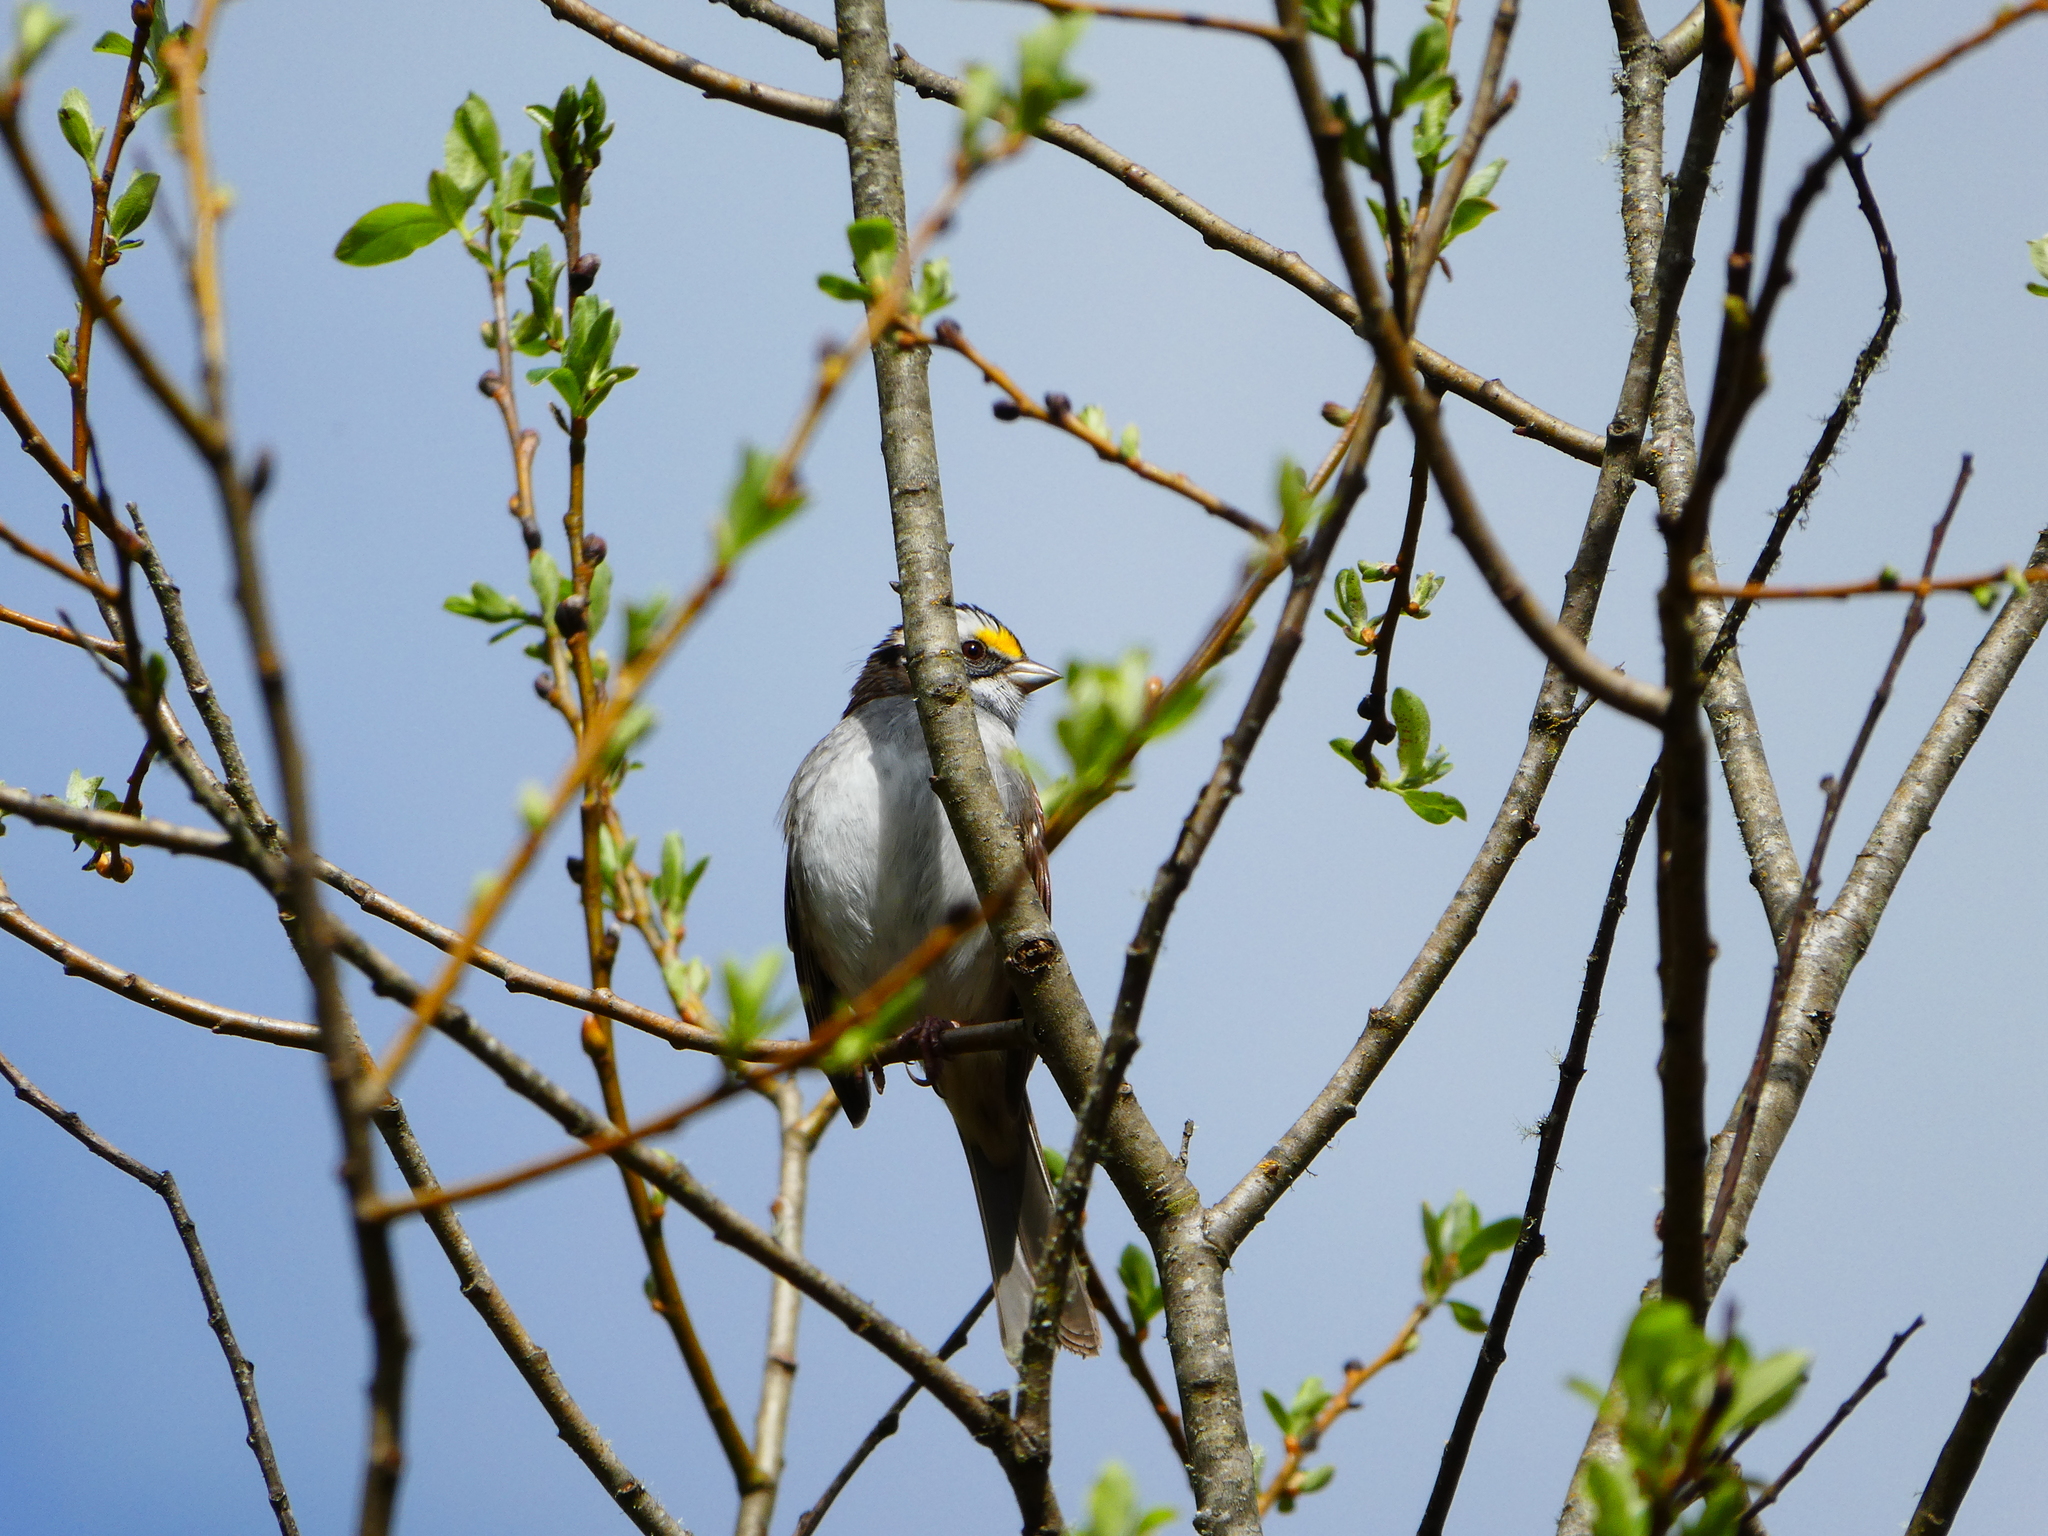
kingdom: Animalia
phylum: Chordata
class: Aves
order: Passeriformes
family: Passerellidae
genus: Zonotrichia
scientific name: Zonotrichia albicollis
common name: White-throated sparrow
